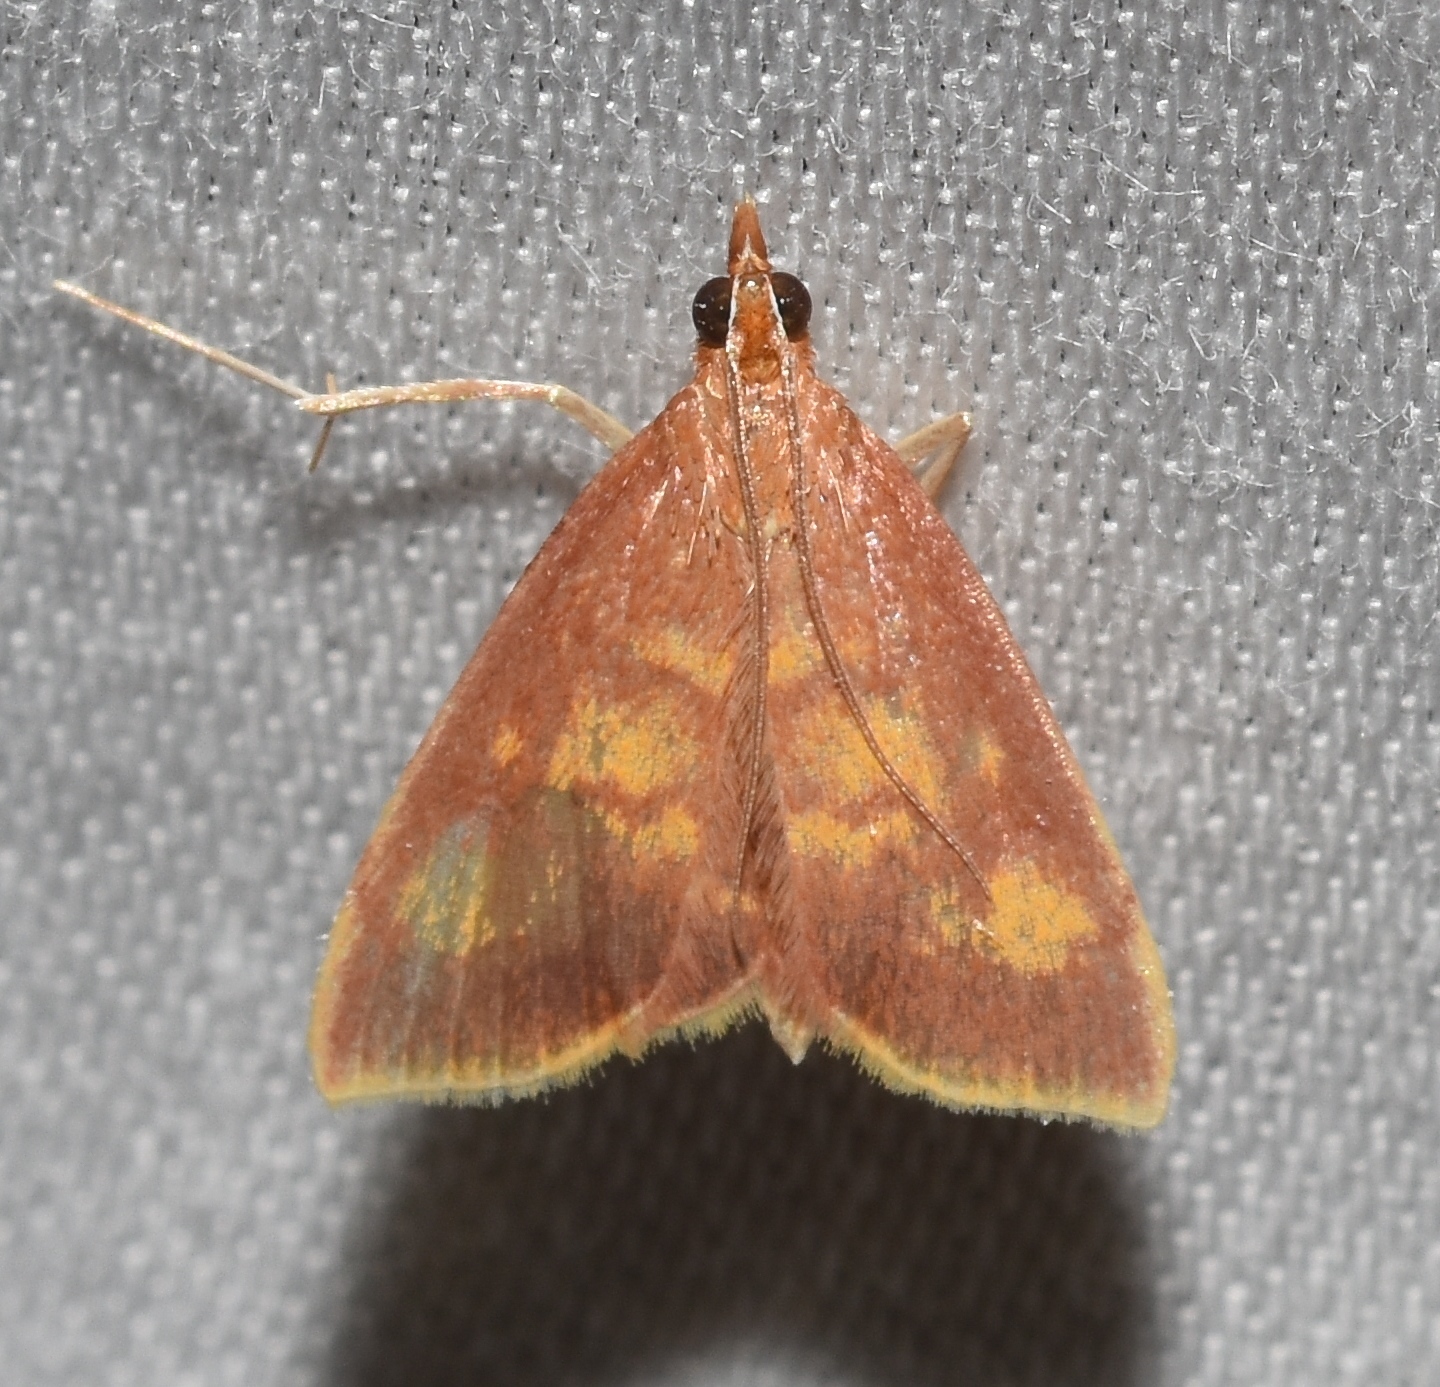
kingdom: Animalia
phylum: Arthropoda
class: Insecta
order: Lepidoptera
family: Crambidae
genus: Pyrausta
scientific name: Pyrausta acrionalis
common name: Mint-loving pyrausta moth
